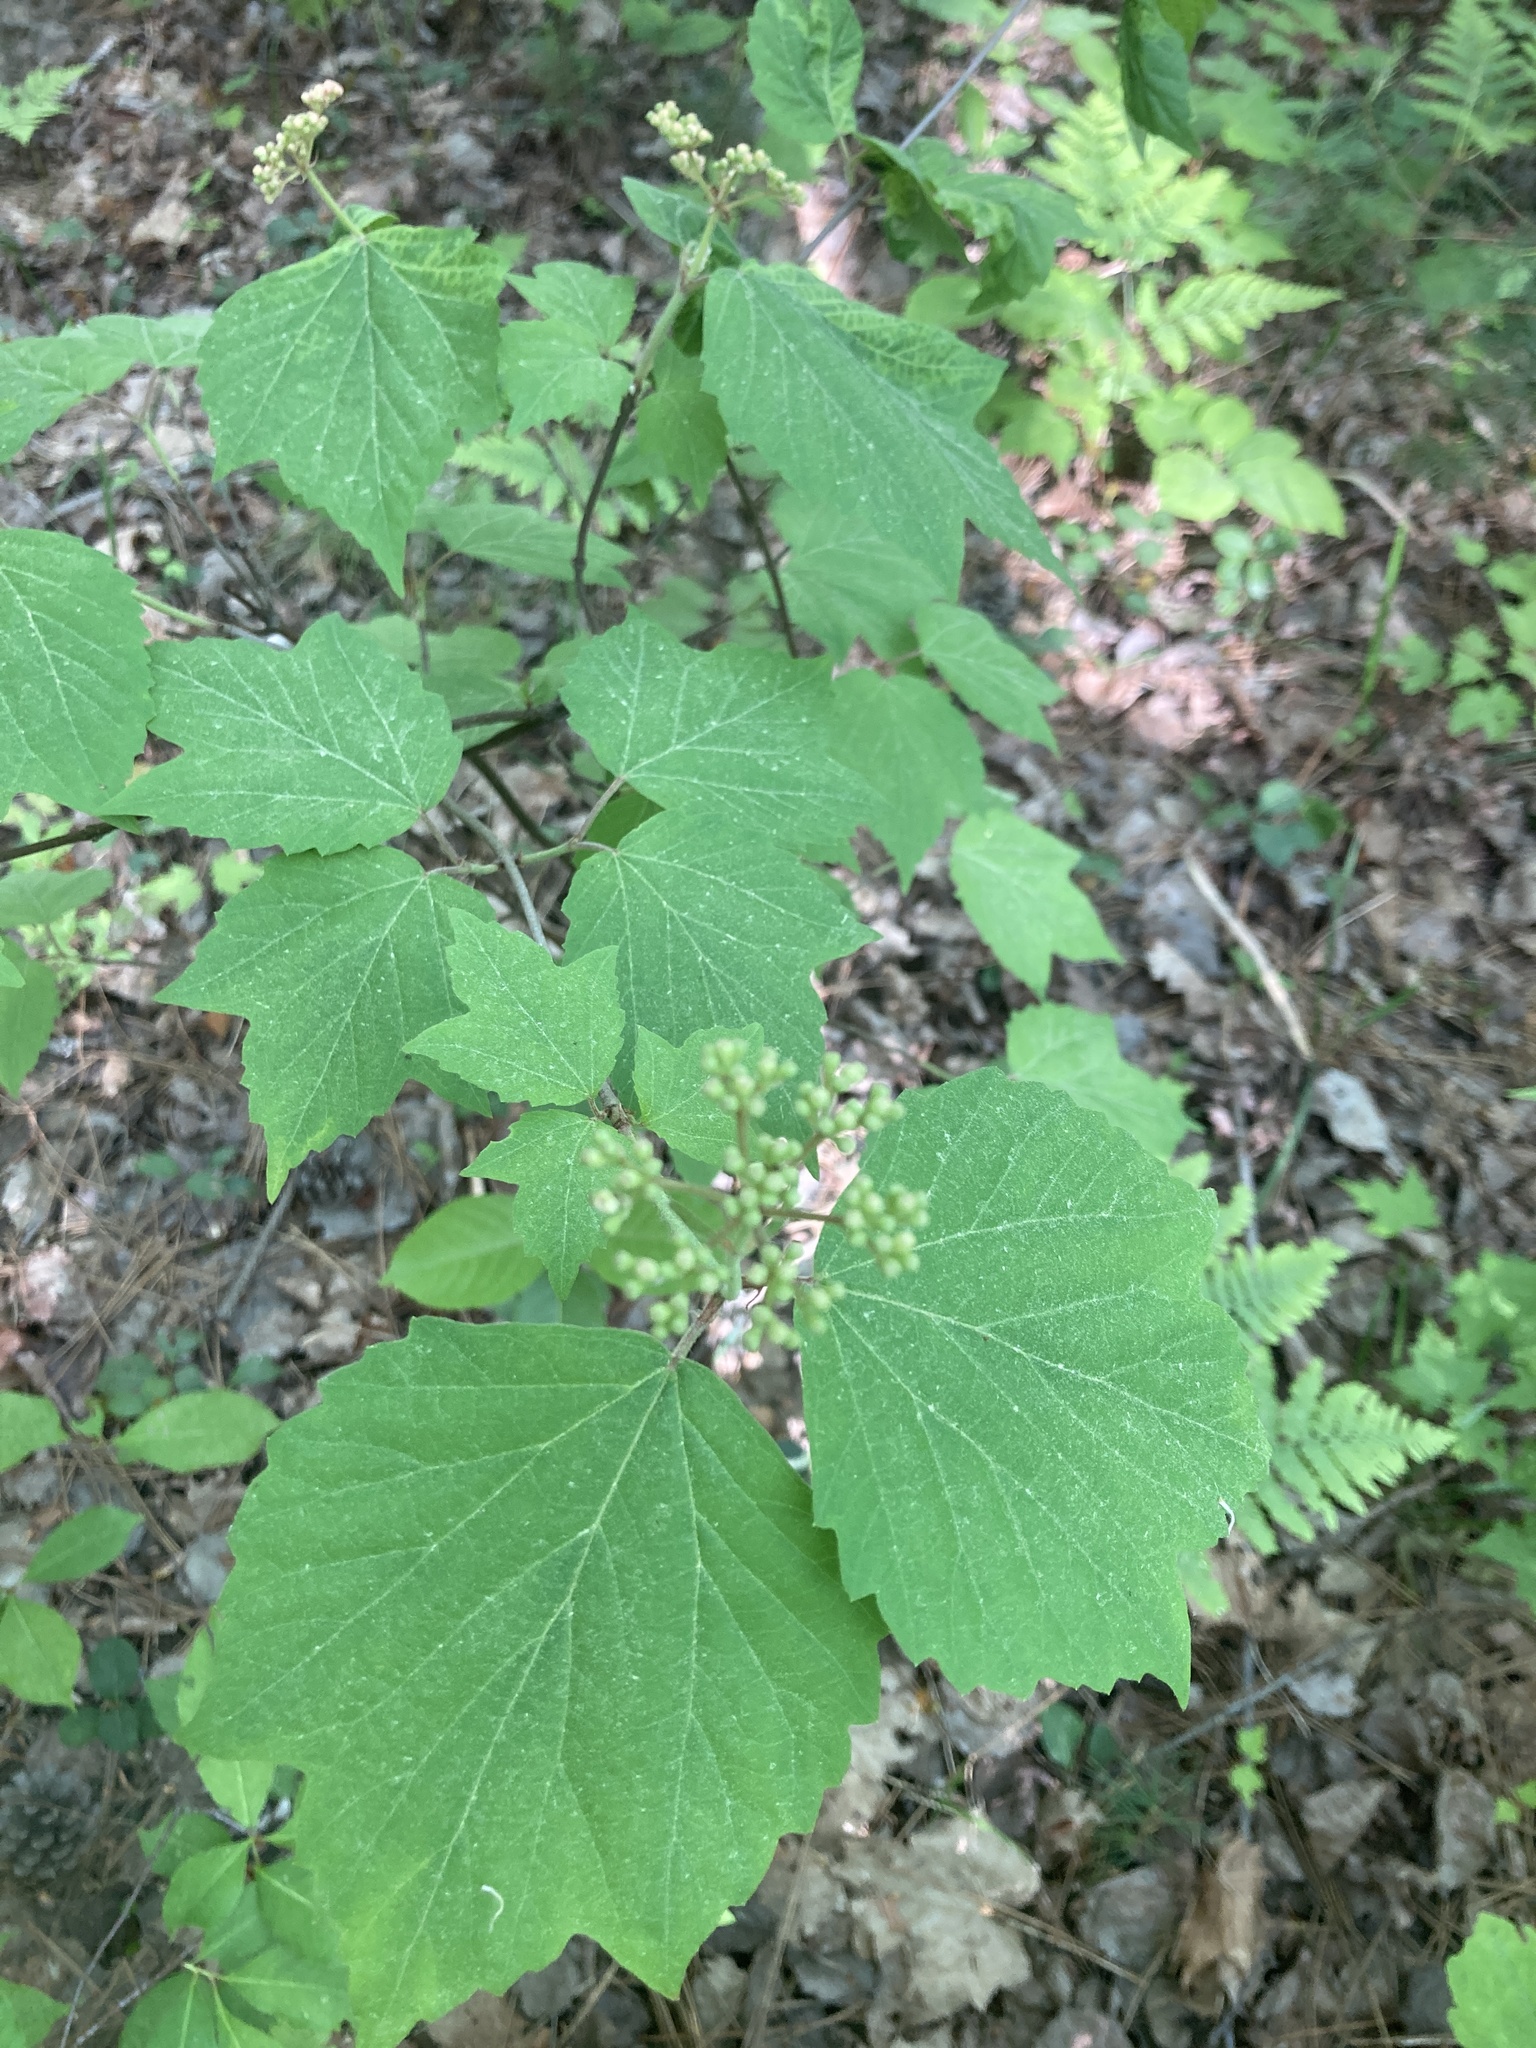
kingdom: Plantae
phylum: Tracheophyta
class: Magnoliopsida
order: Dipsacales
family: Viburnaceae
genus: Viburnum
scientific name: Viburnum acerifolium
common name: Dockmackie
